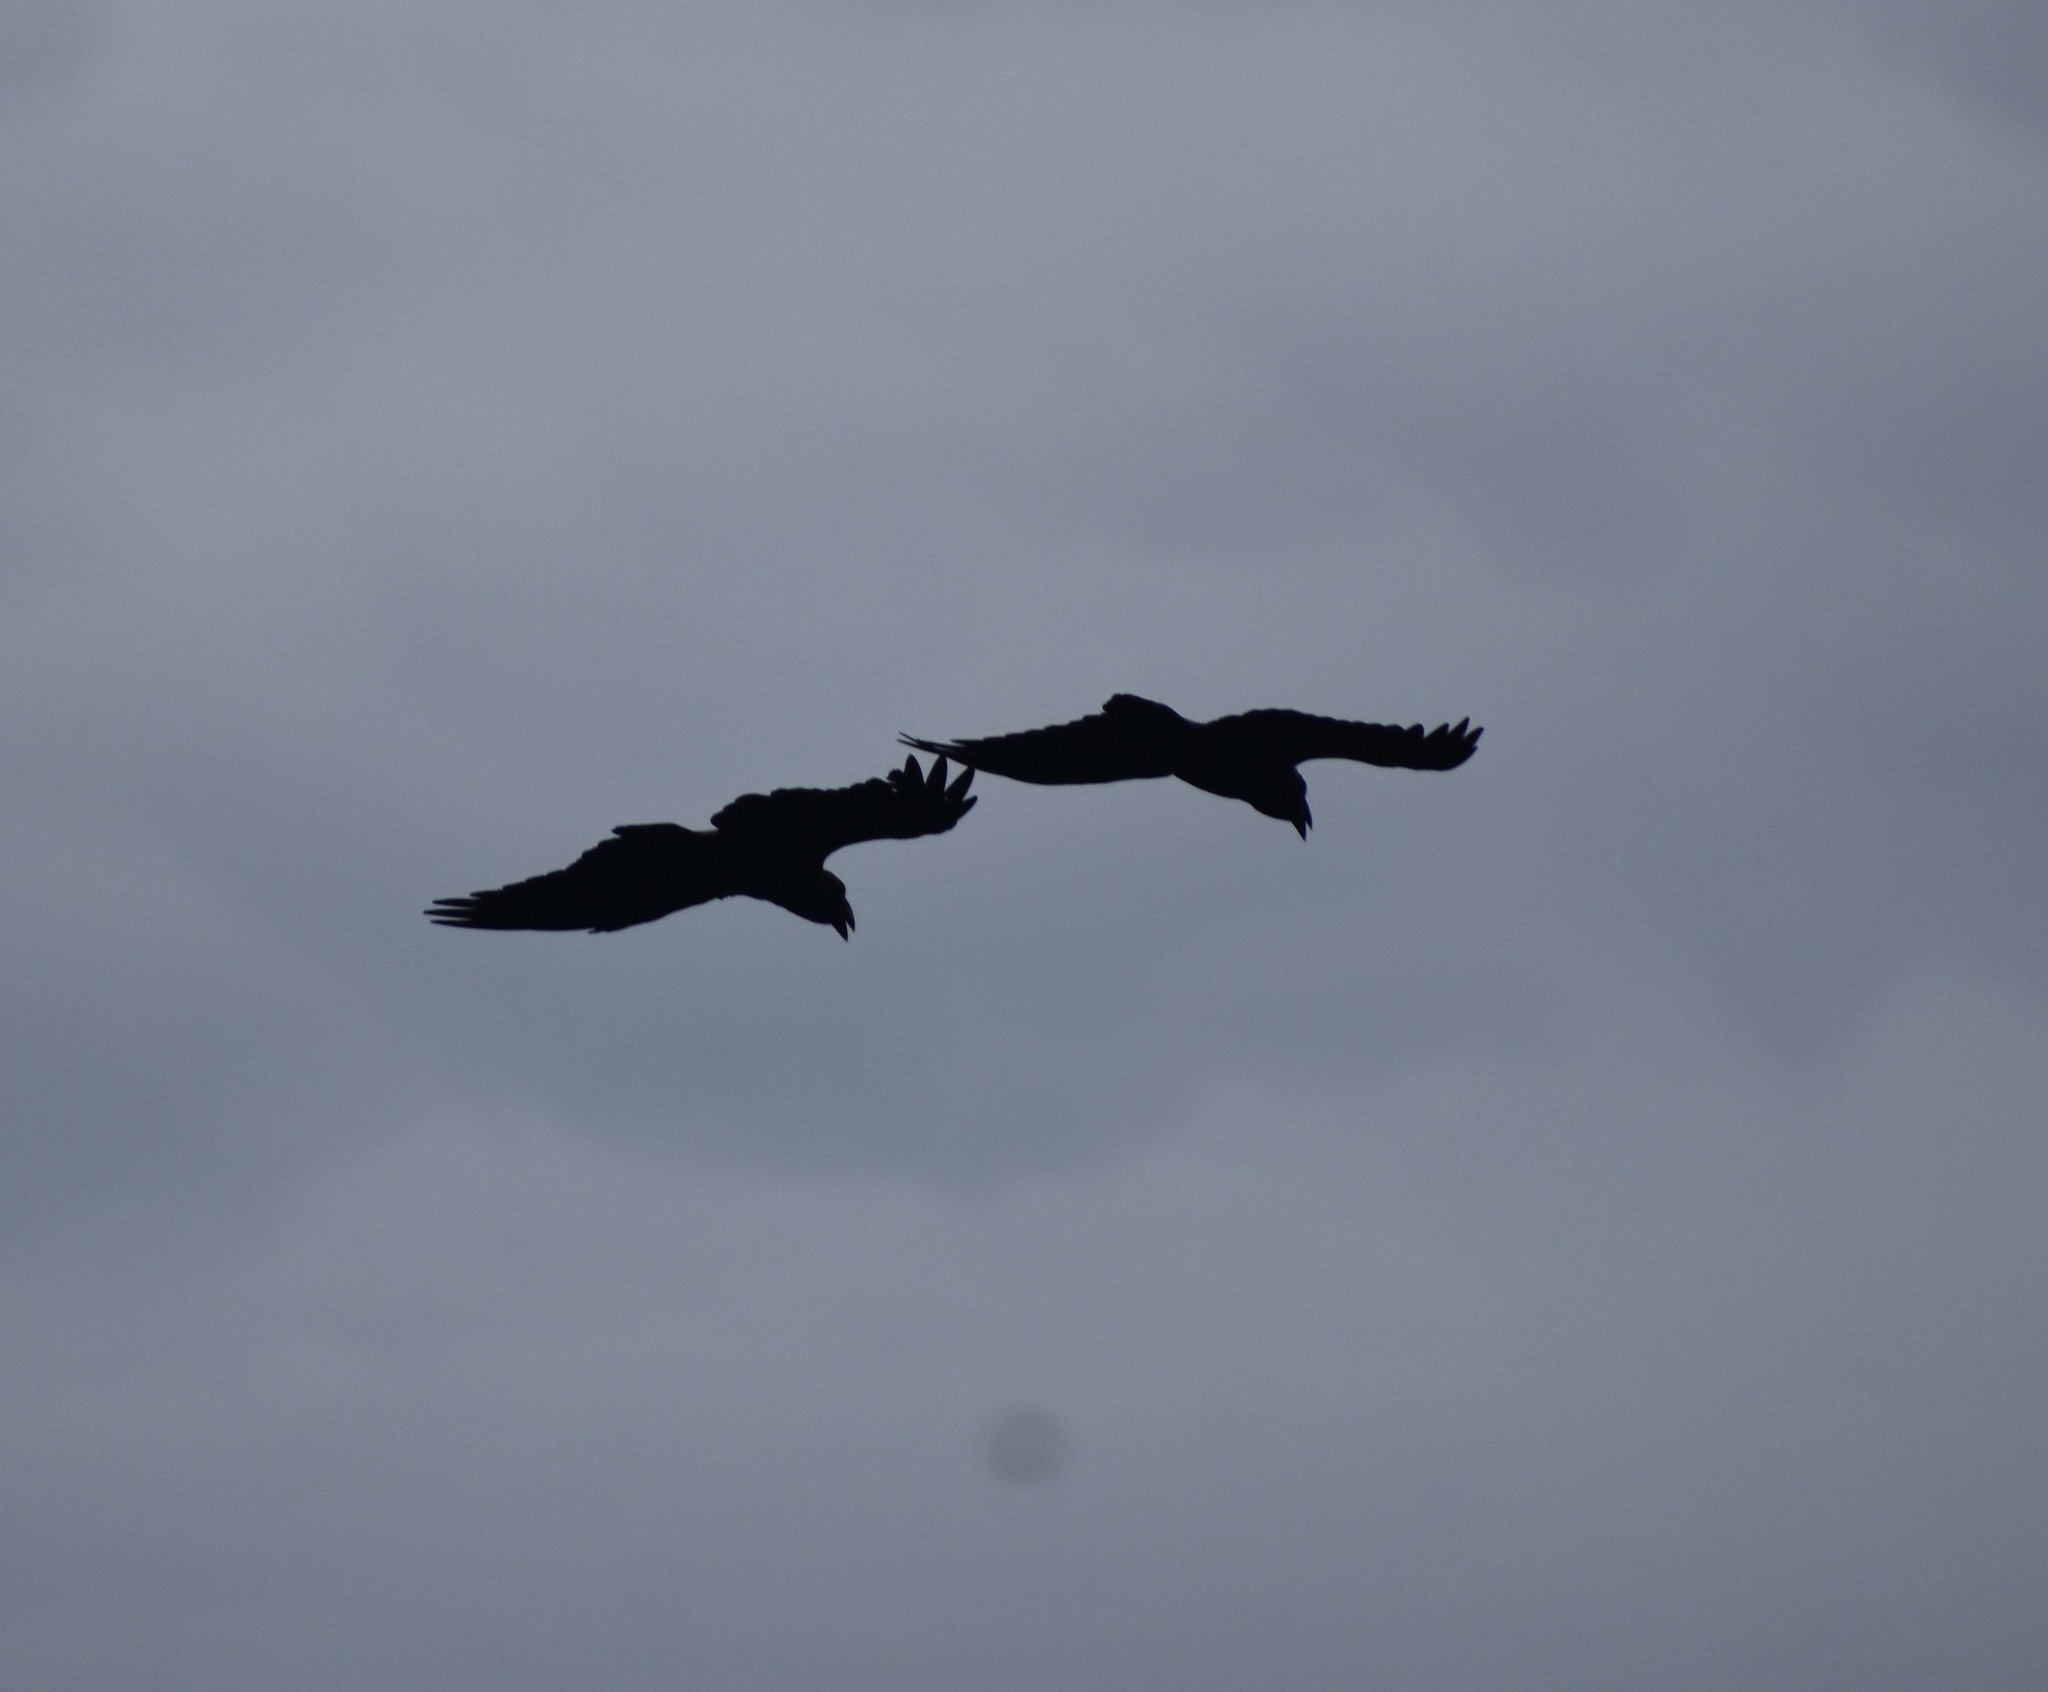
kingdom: Animalia
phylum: Chordata
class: Aves
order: Passeriformes
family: Corvidae
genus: Corvus
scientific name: Corvus albicollis
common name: White-necked raven
